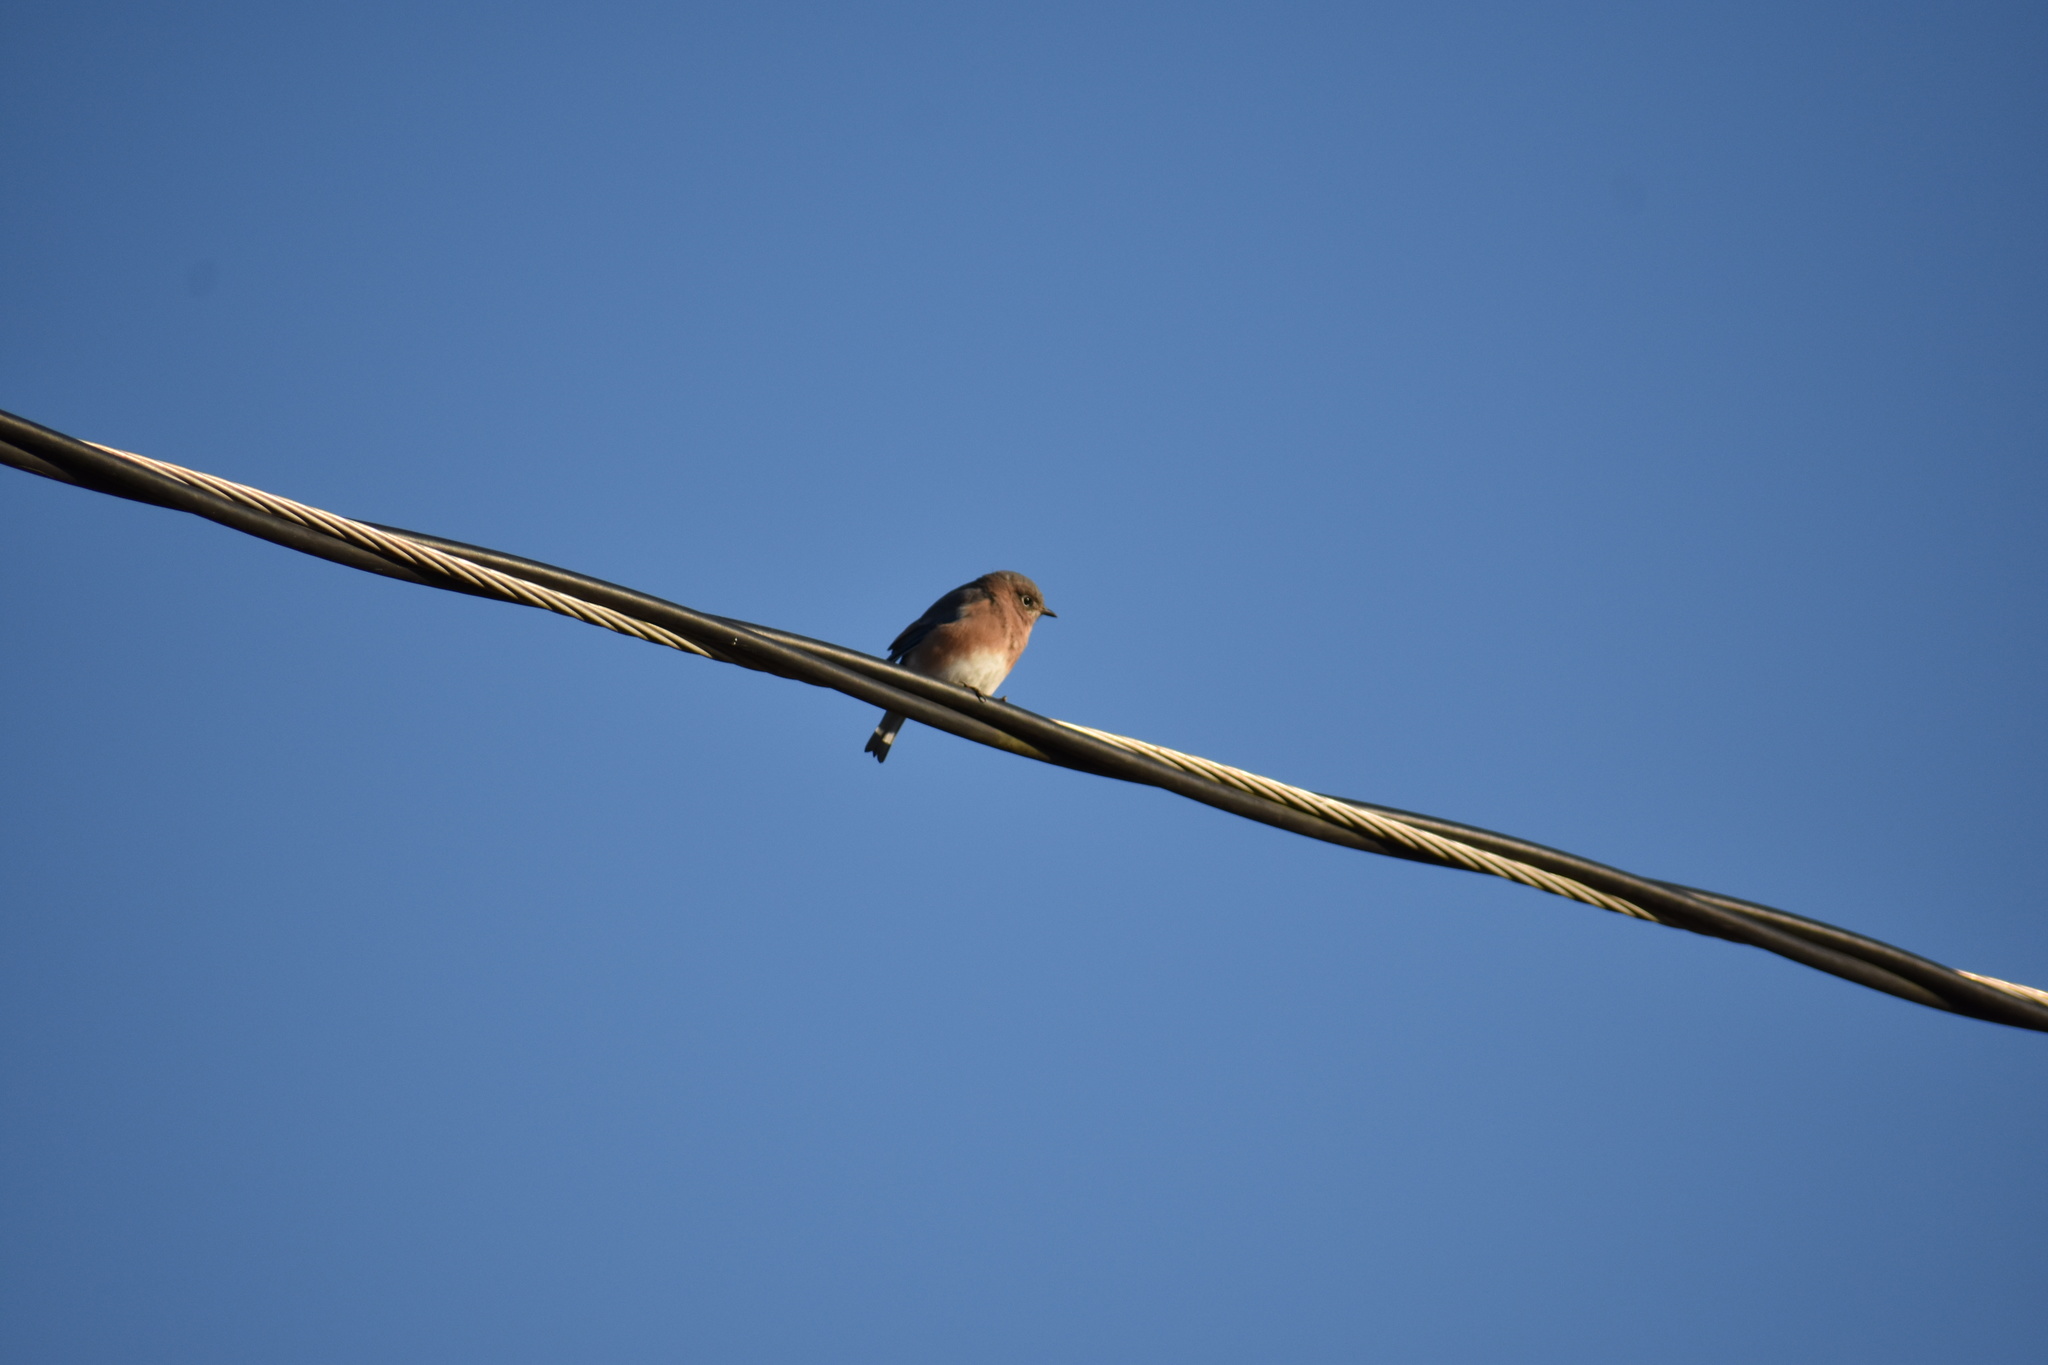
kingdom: Animalia
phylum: Chordata
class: Aves
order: Passeriformes
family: Turdidae
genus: Sialia
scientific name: Sialia sialis
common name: Eastern bluebird
